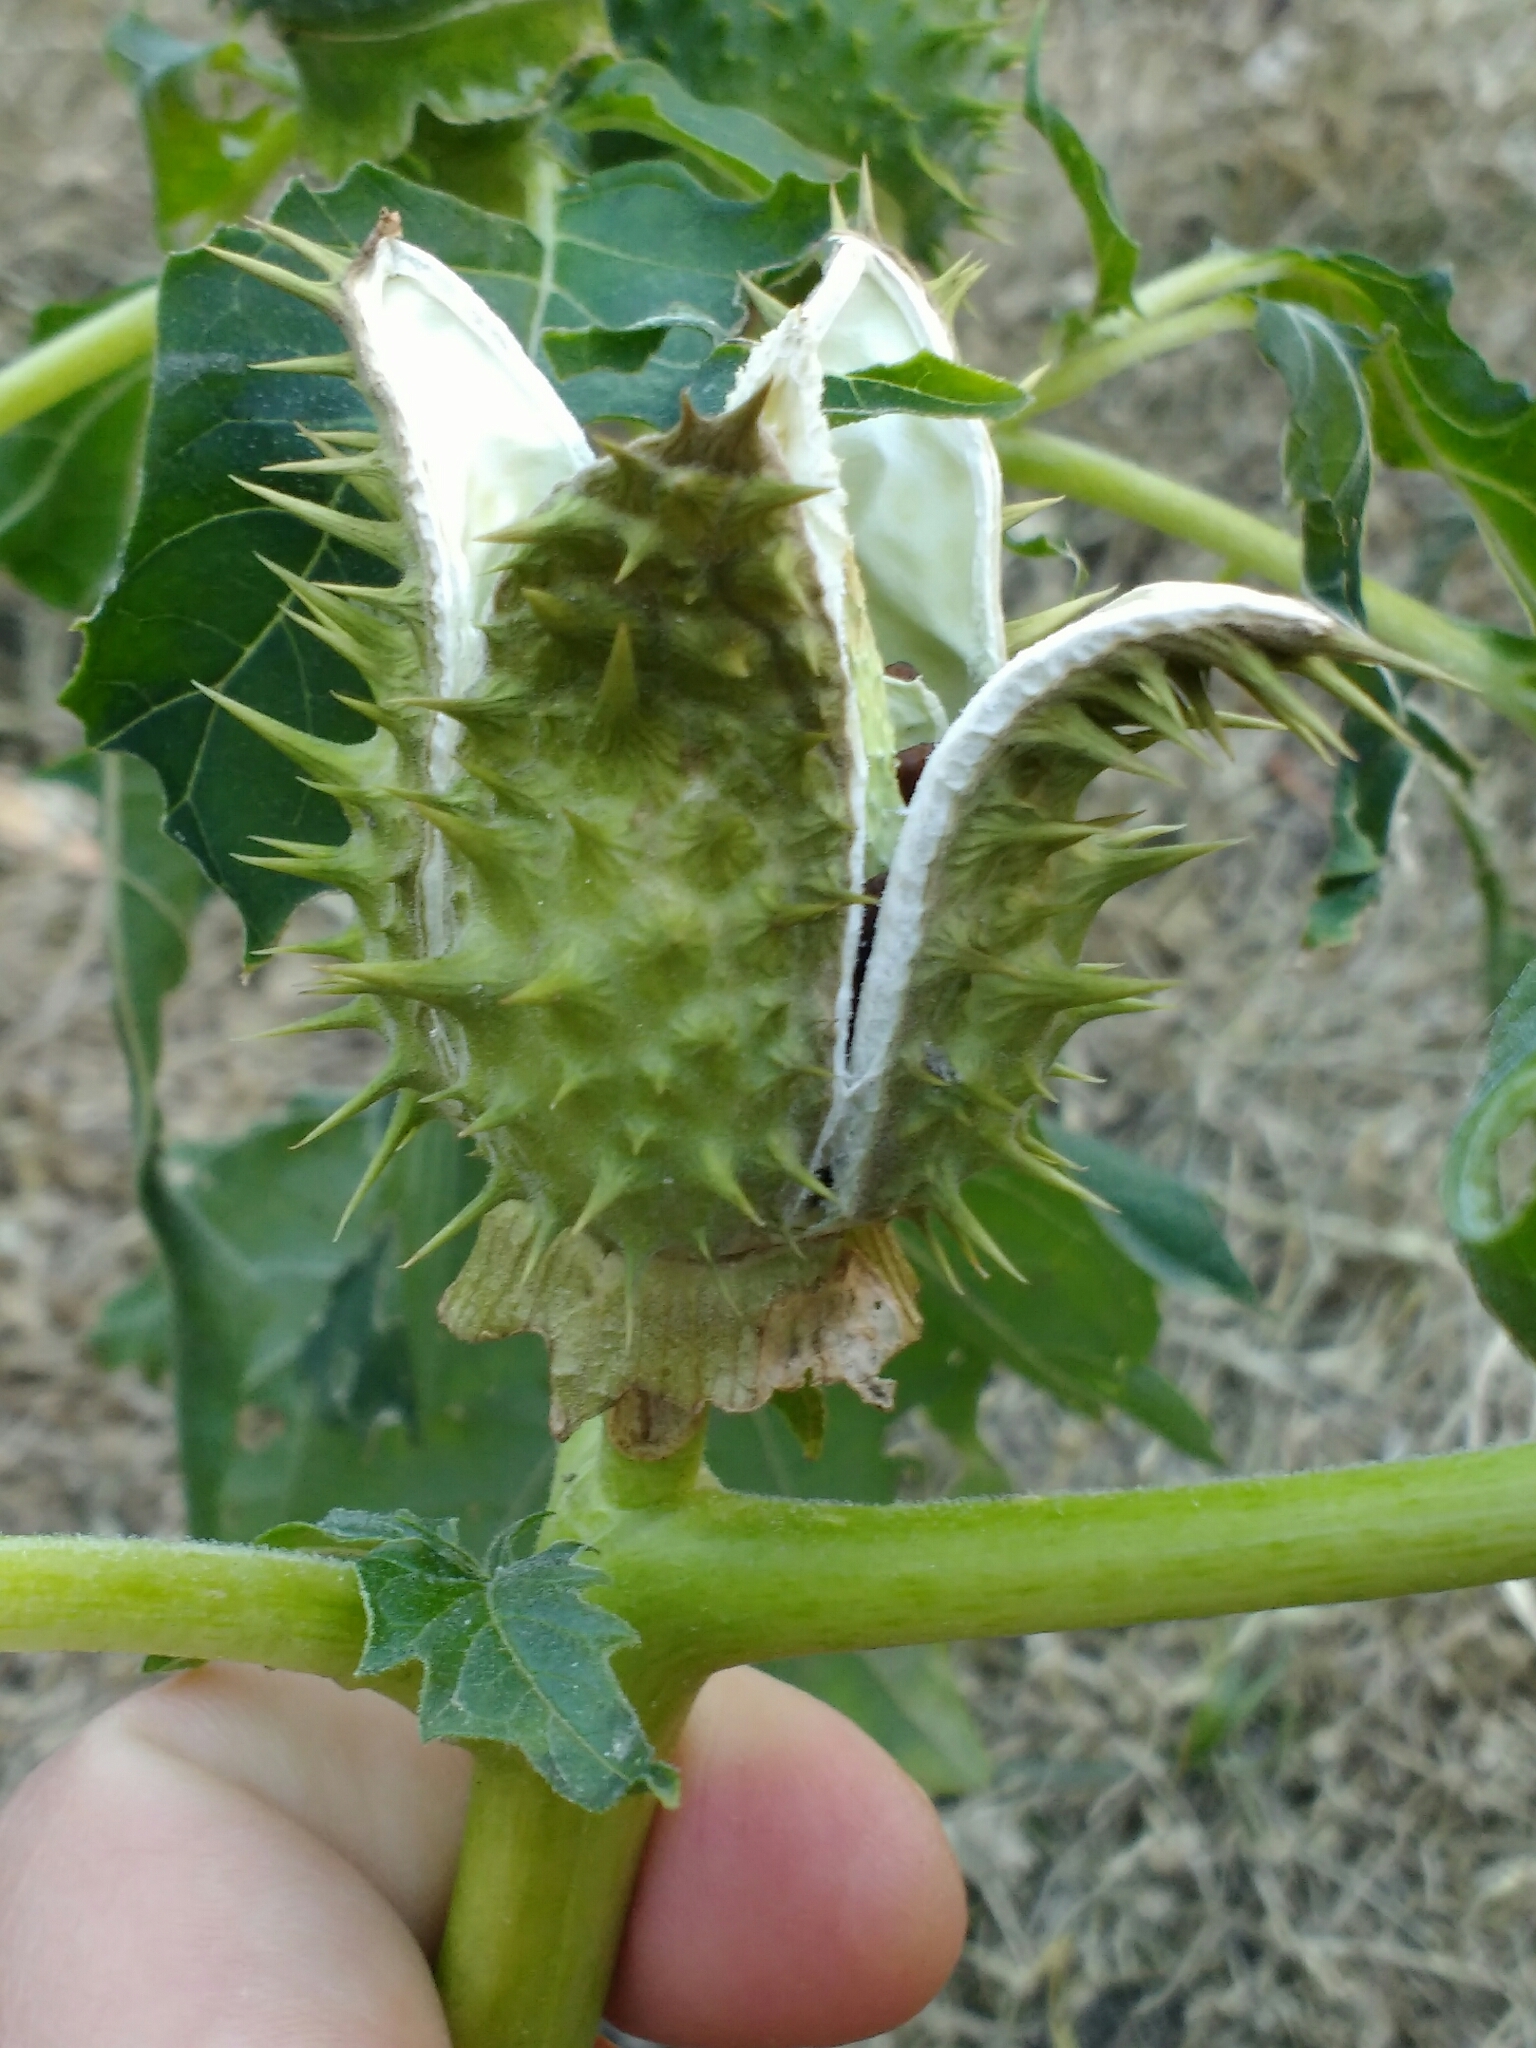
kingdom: Plantae
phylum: Tracheophyta
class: Magnoliopsida
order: Solanales
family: Solanaceae
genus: Datura
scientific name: Datura stramonium
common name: Thorn-apple
